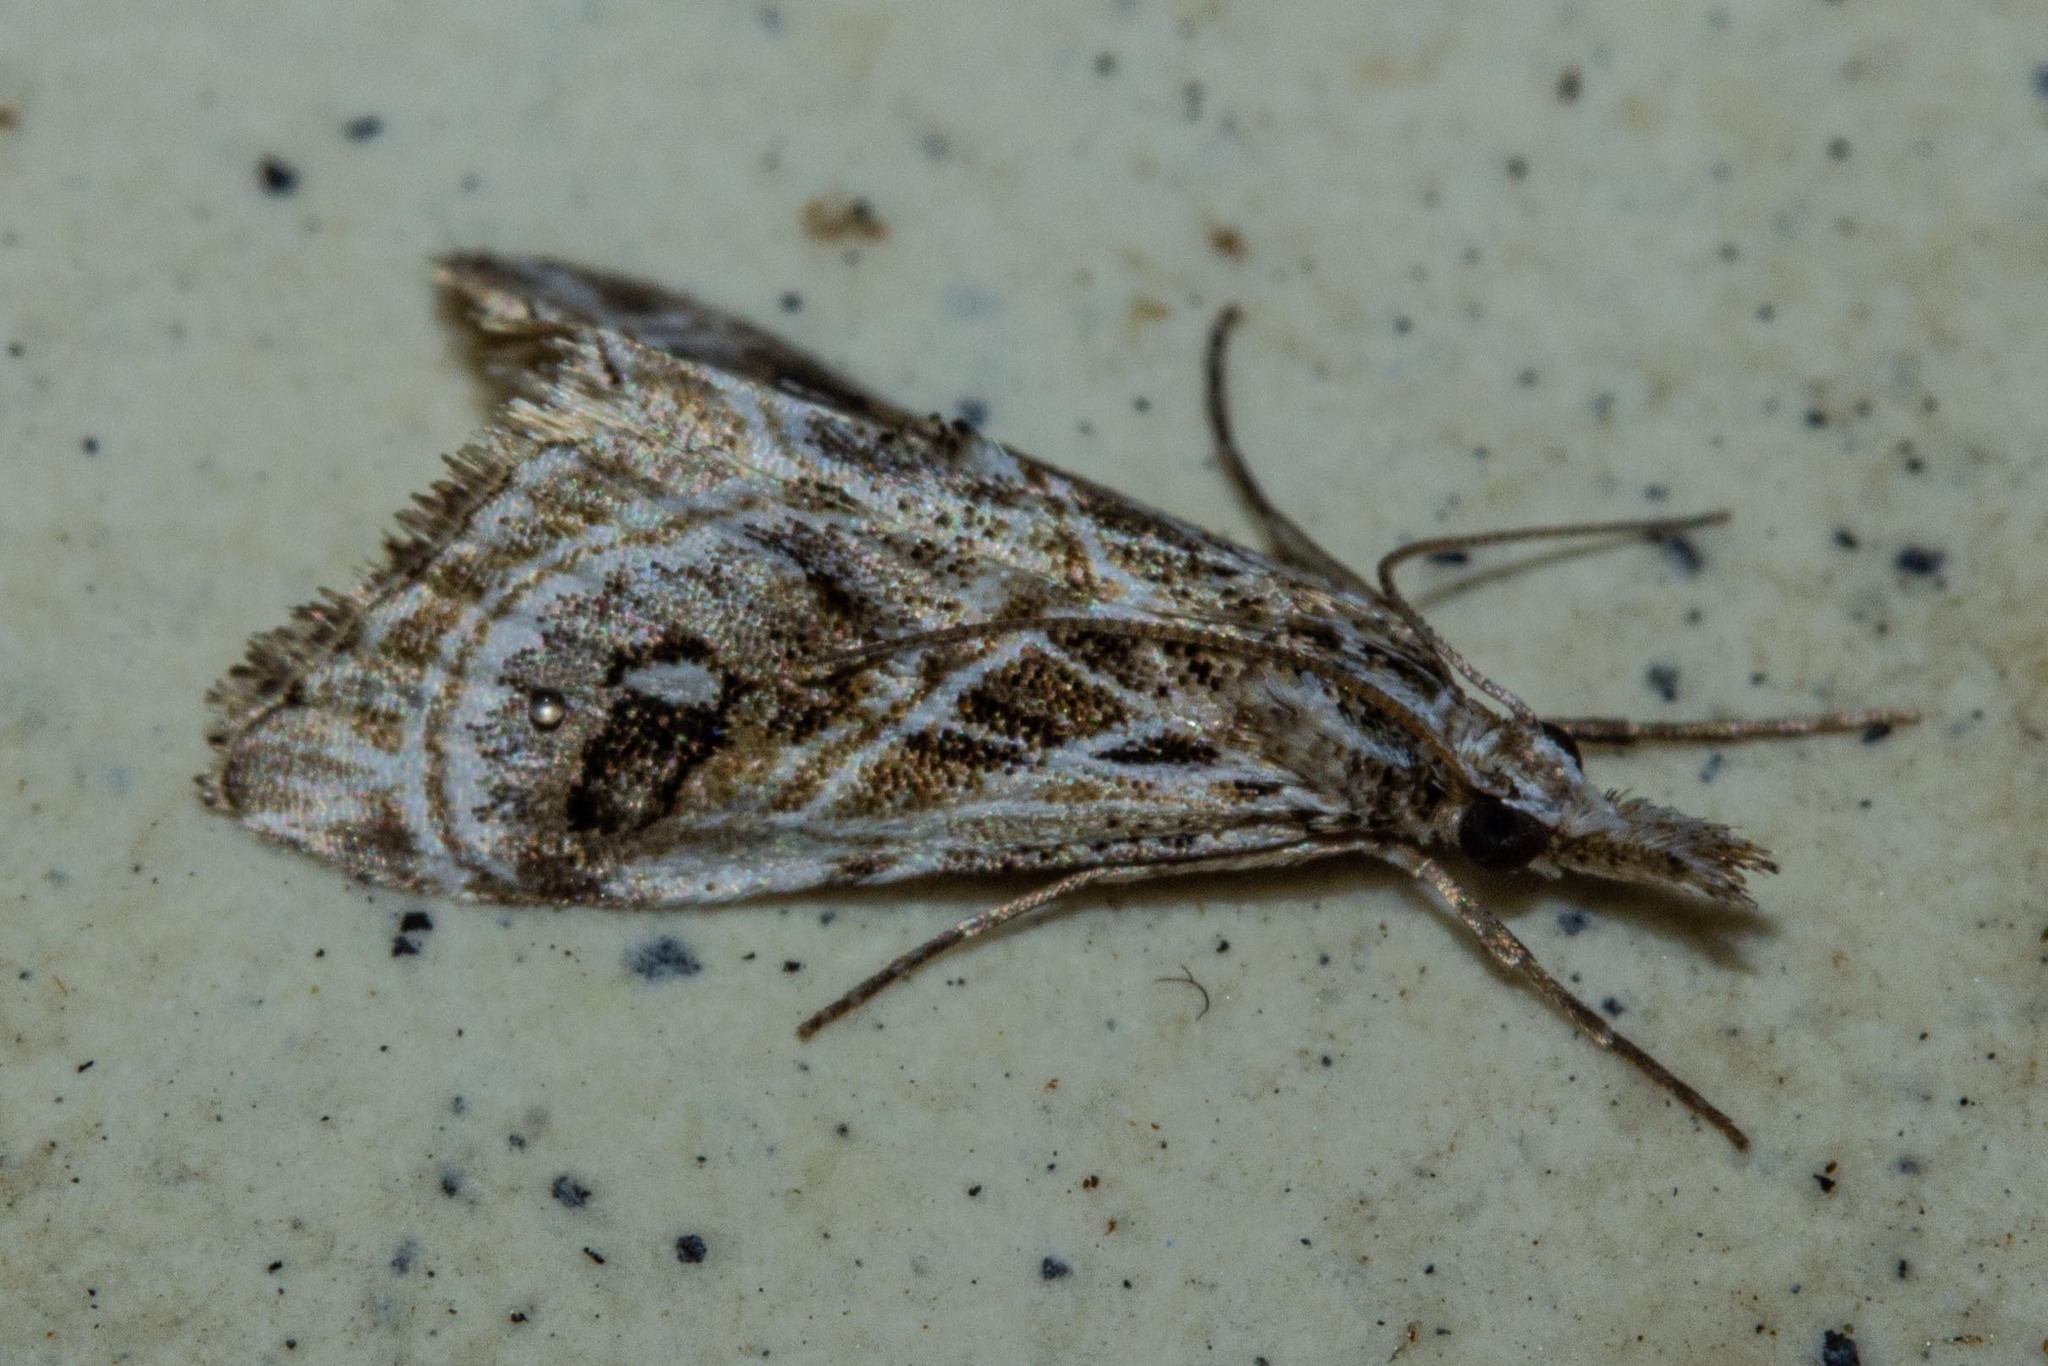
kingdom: Animalia
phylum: Arthropoda
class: Insecta
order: Lepidoptera
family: Crambidae
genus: Gadira
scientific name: Gadira acerella
